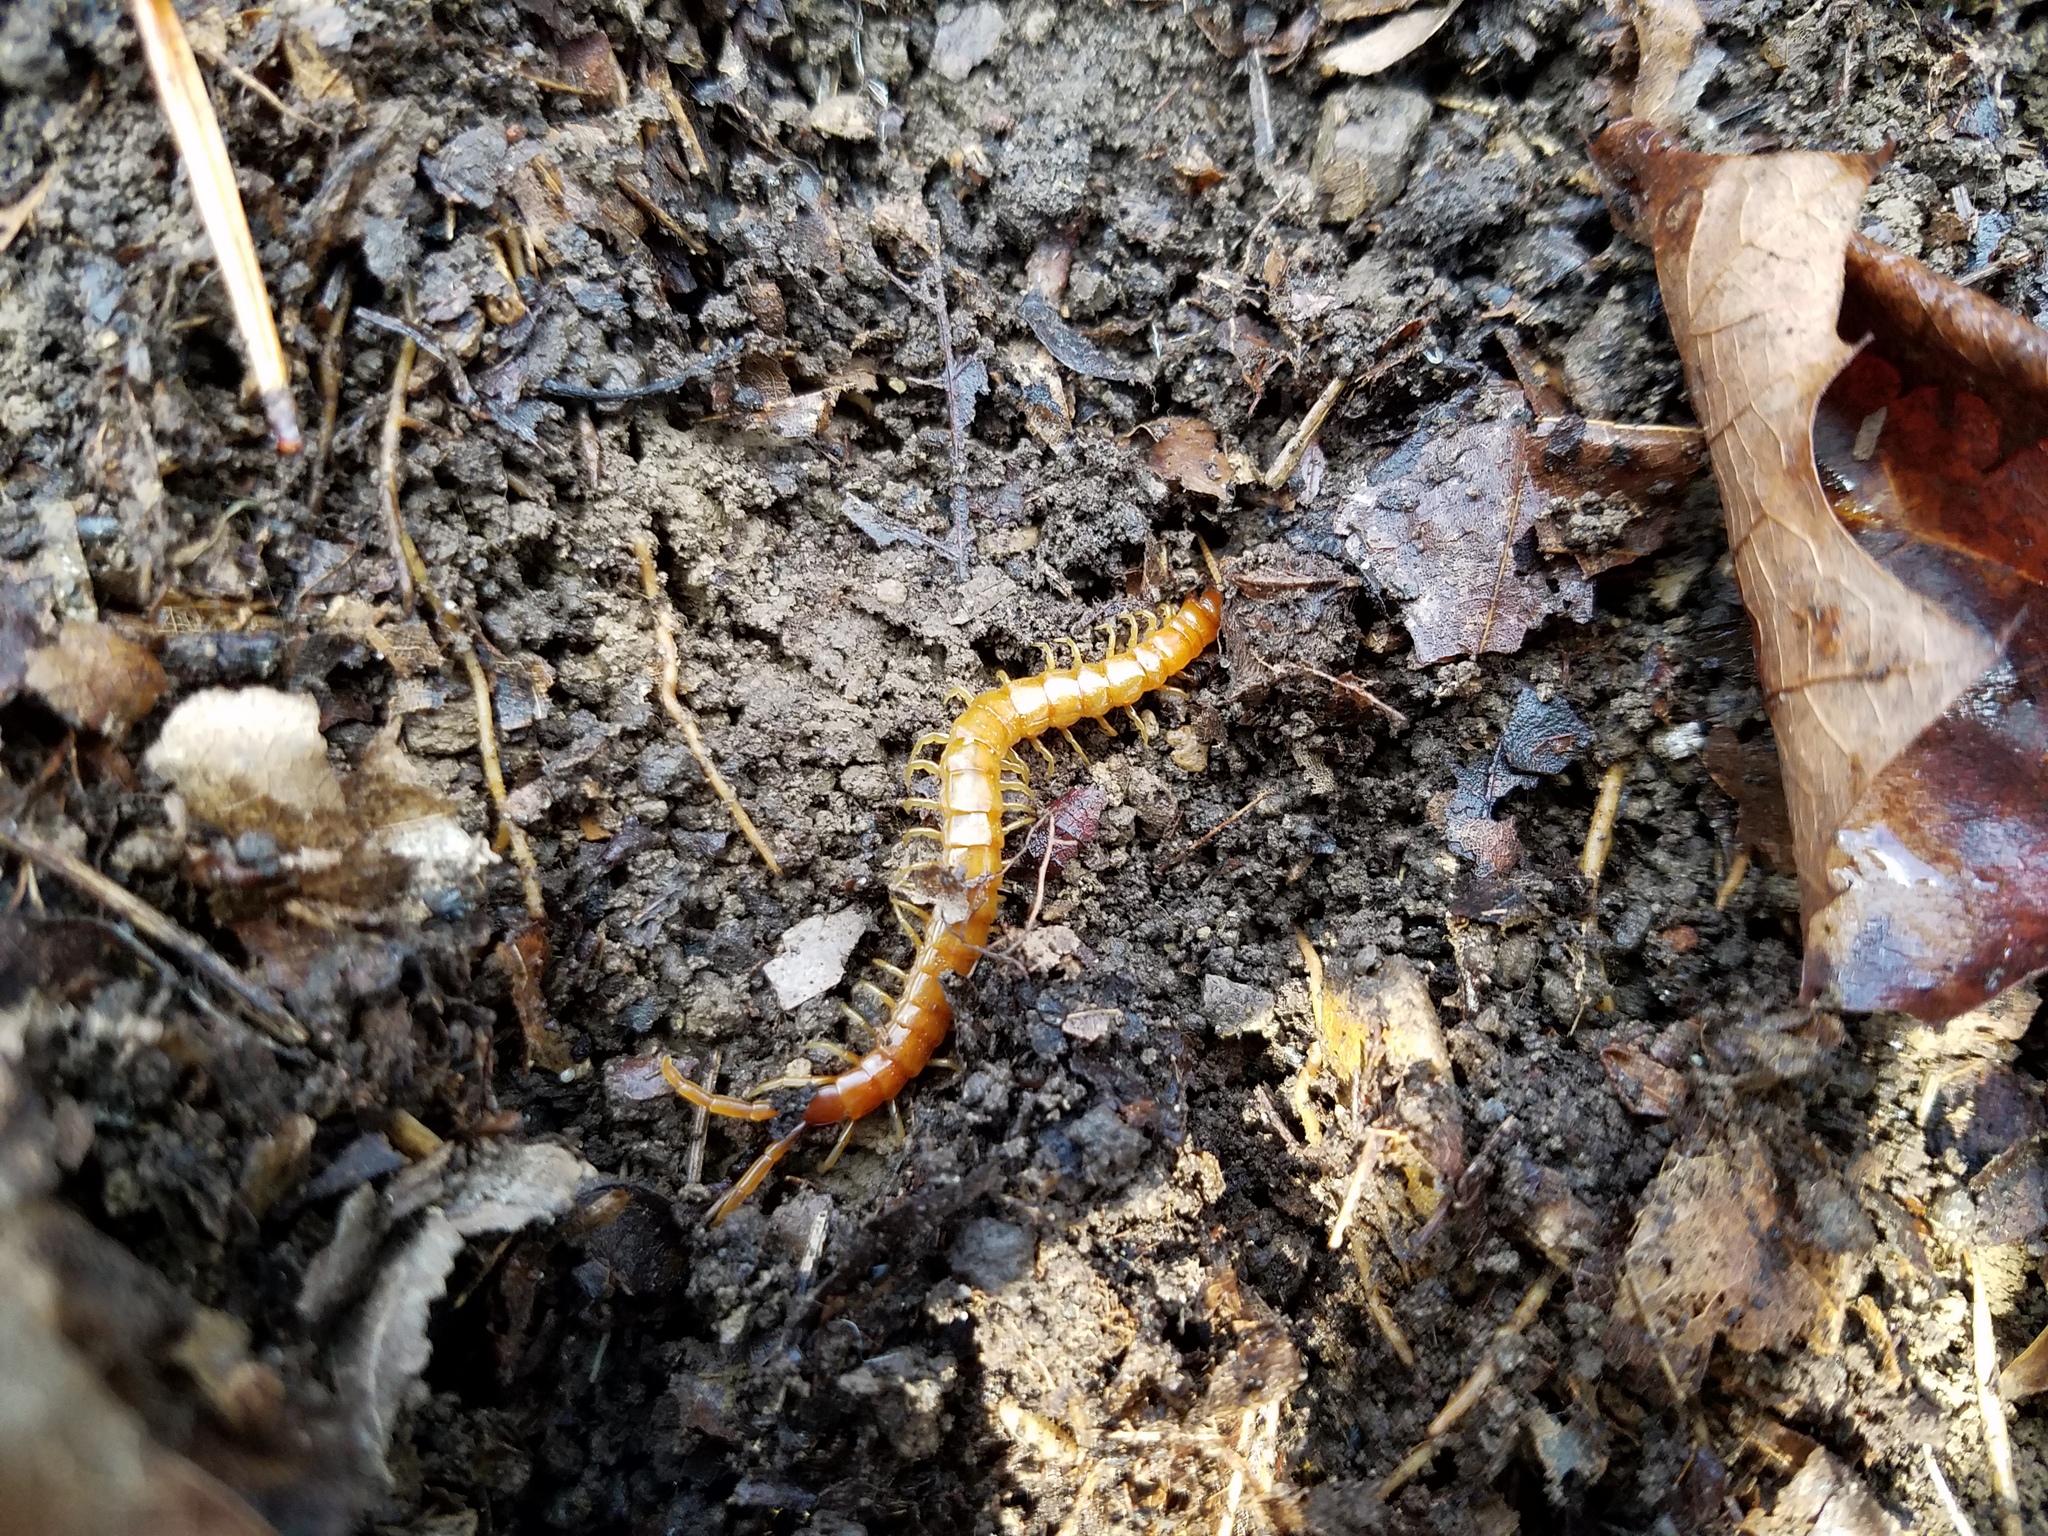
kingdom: Animalia
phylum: Arthropoda
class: Chilopoda
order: Scolopendromorpha
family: Scolopocryptopidae
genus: Scolopocryptops
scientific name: Scolopocryptops peregrinator
